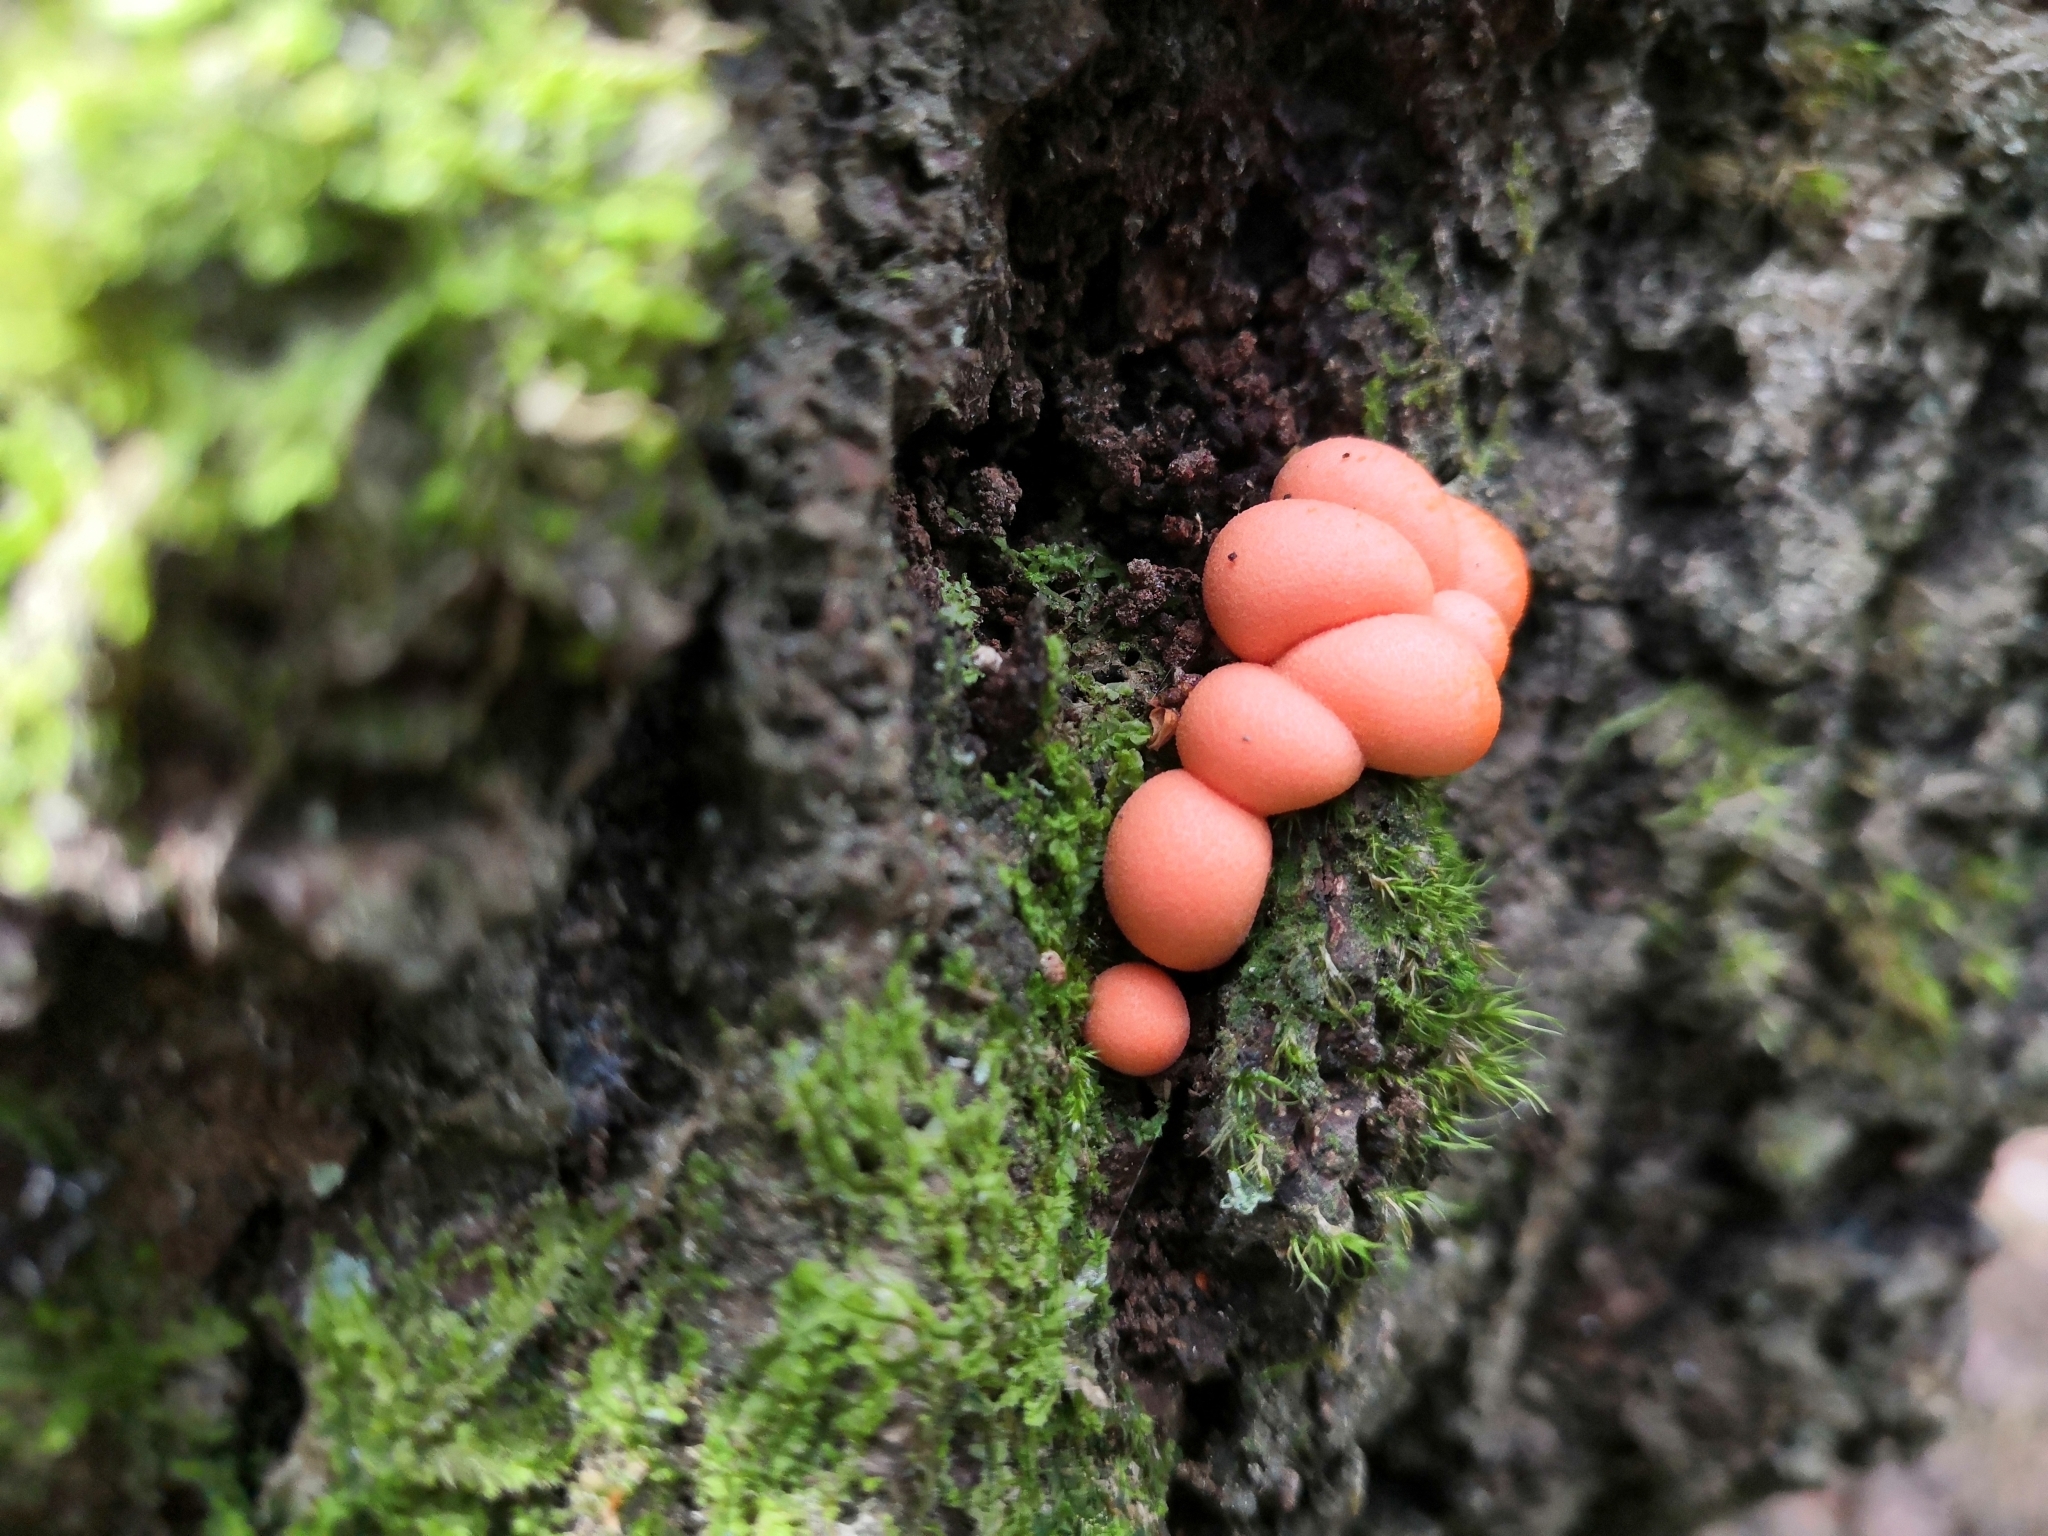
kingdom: Protozoa
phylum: Mycetozoa
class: Myxomycetes
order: Cribrariales
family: Tubiferaceae
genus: Lycogala
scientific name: Lycogala epidendrum
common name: Wolf's milk
